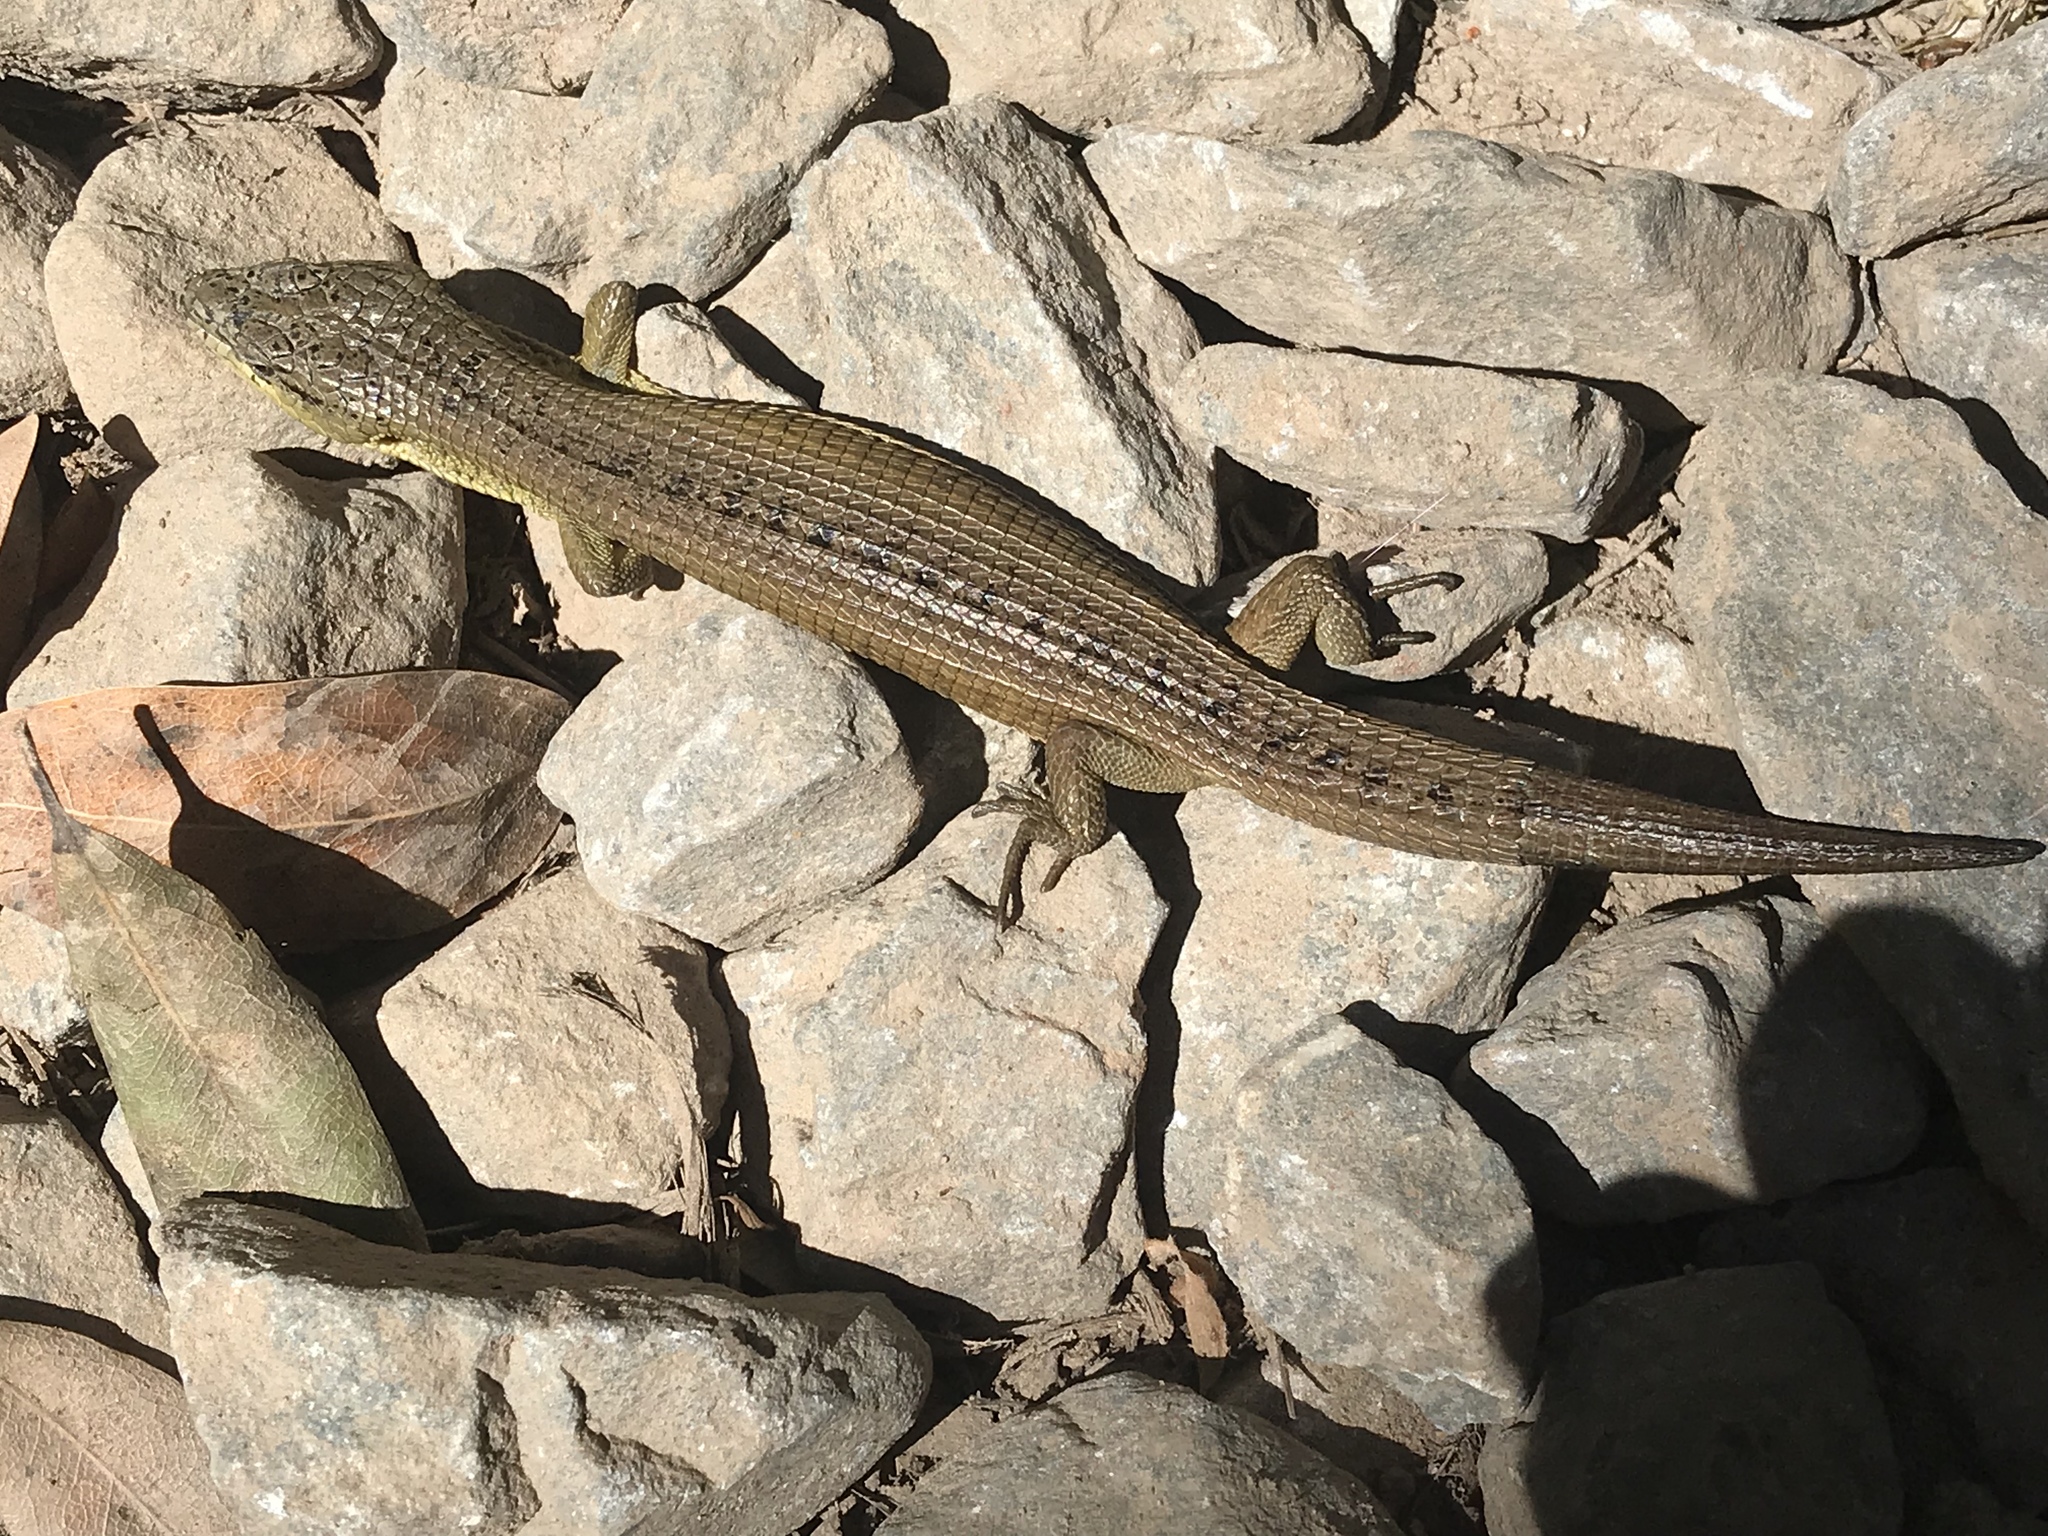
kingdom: Animalia
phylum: Chordata
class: Squamata
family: Anguidae
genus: Elgaria
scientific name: Elgaria coerulea
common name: Northern alligator lizard
